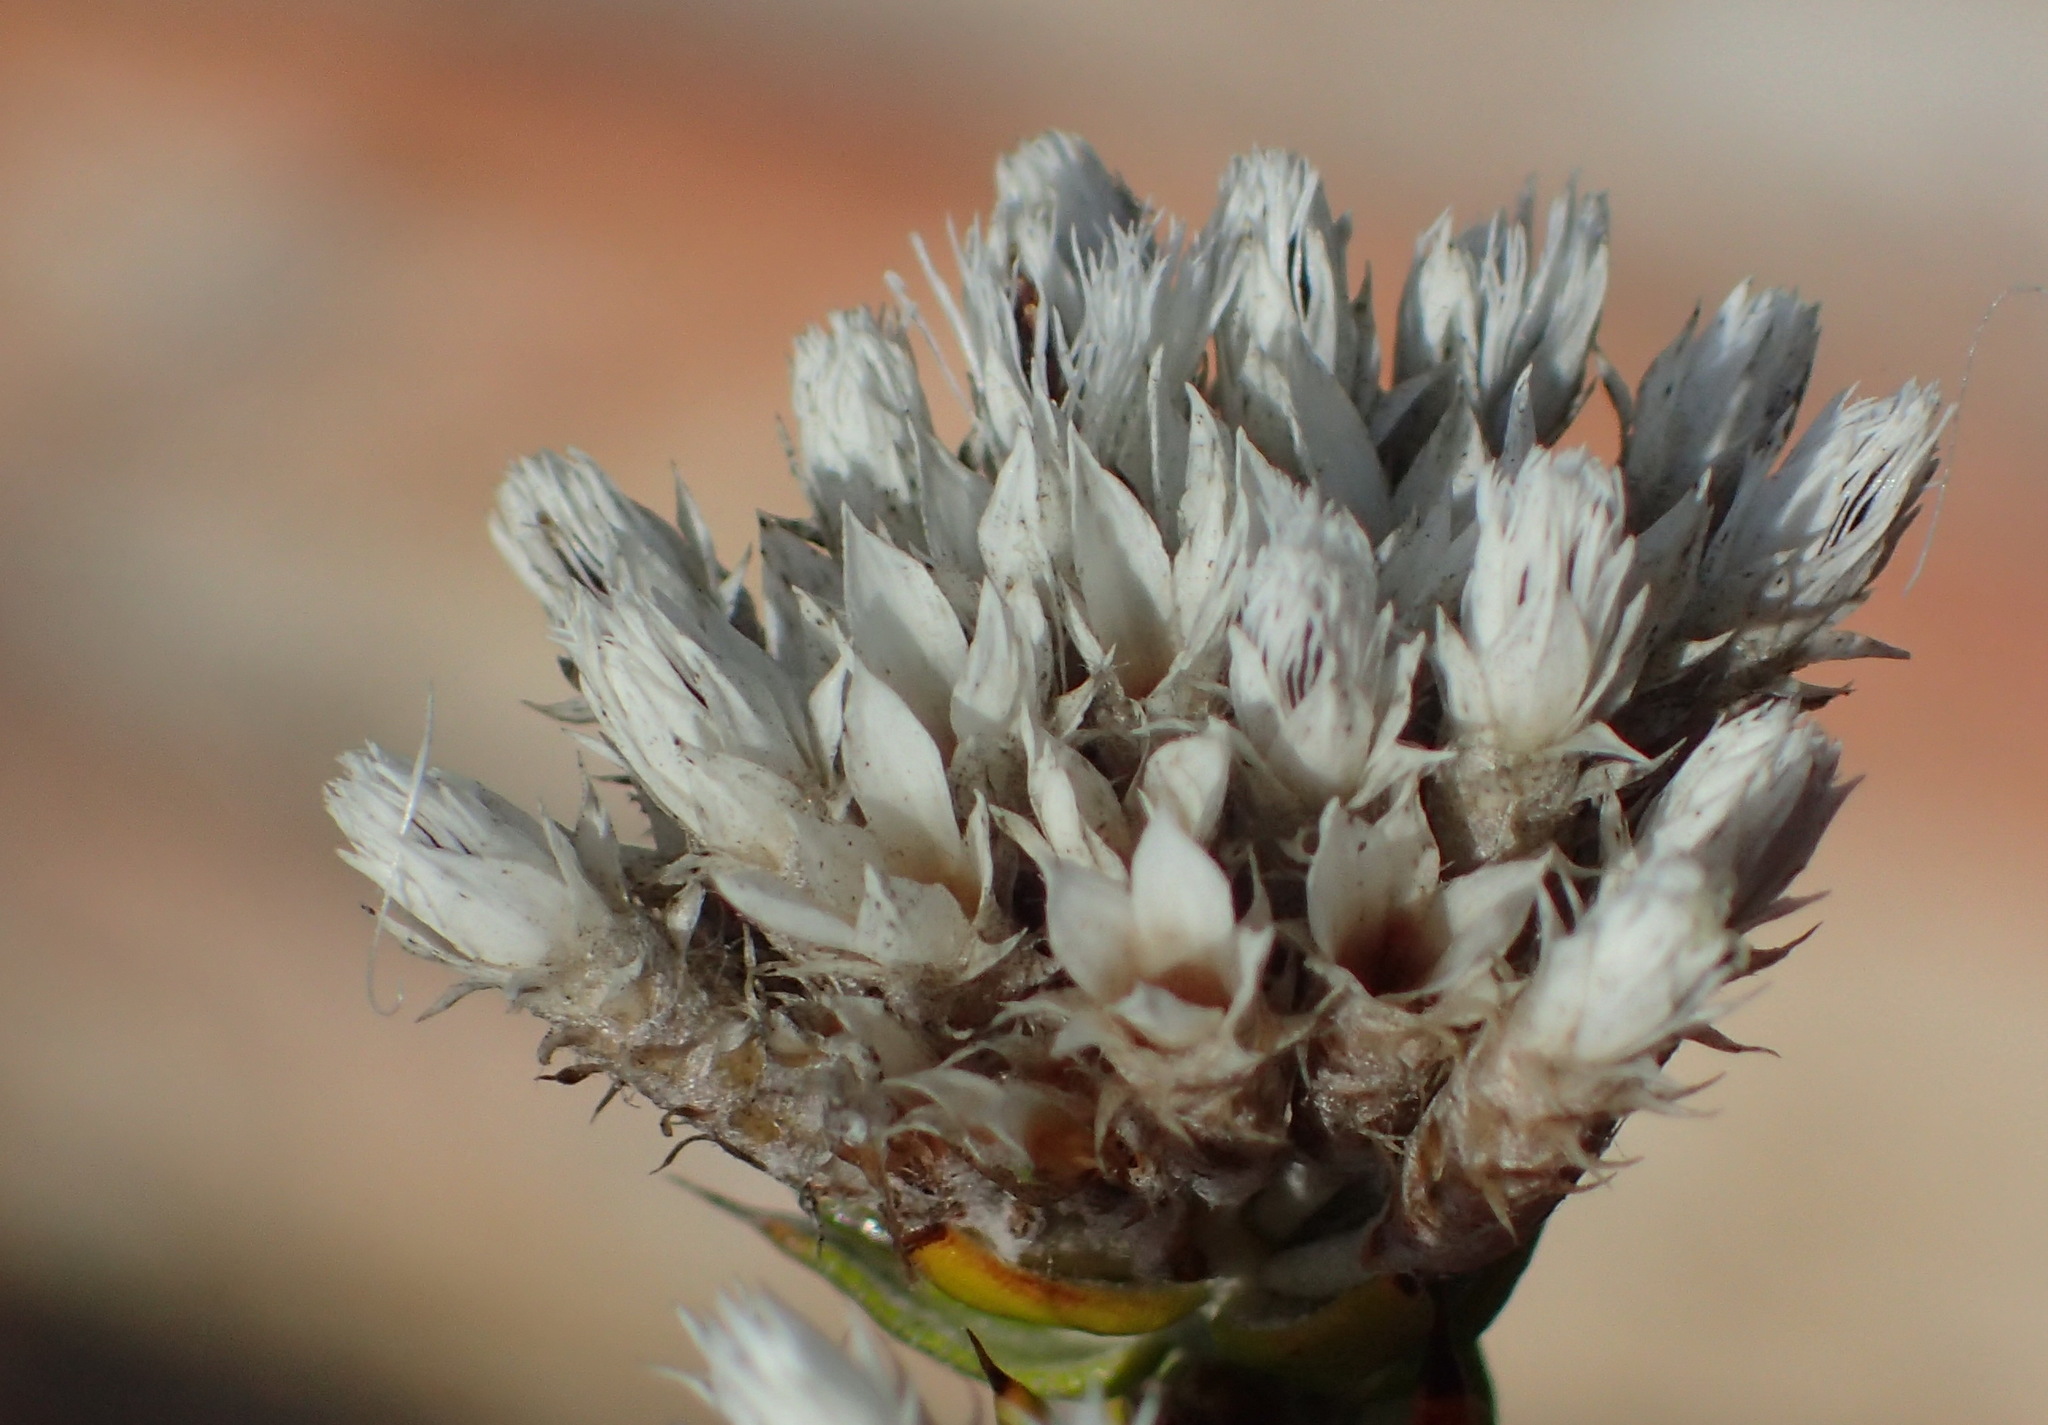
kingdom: Plantae
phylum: Tracheophyta
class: Magnoliopsida
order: Asterales
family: Asteraceae
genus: Metalasia
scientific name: Metalasia pulcherrima
